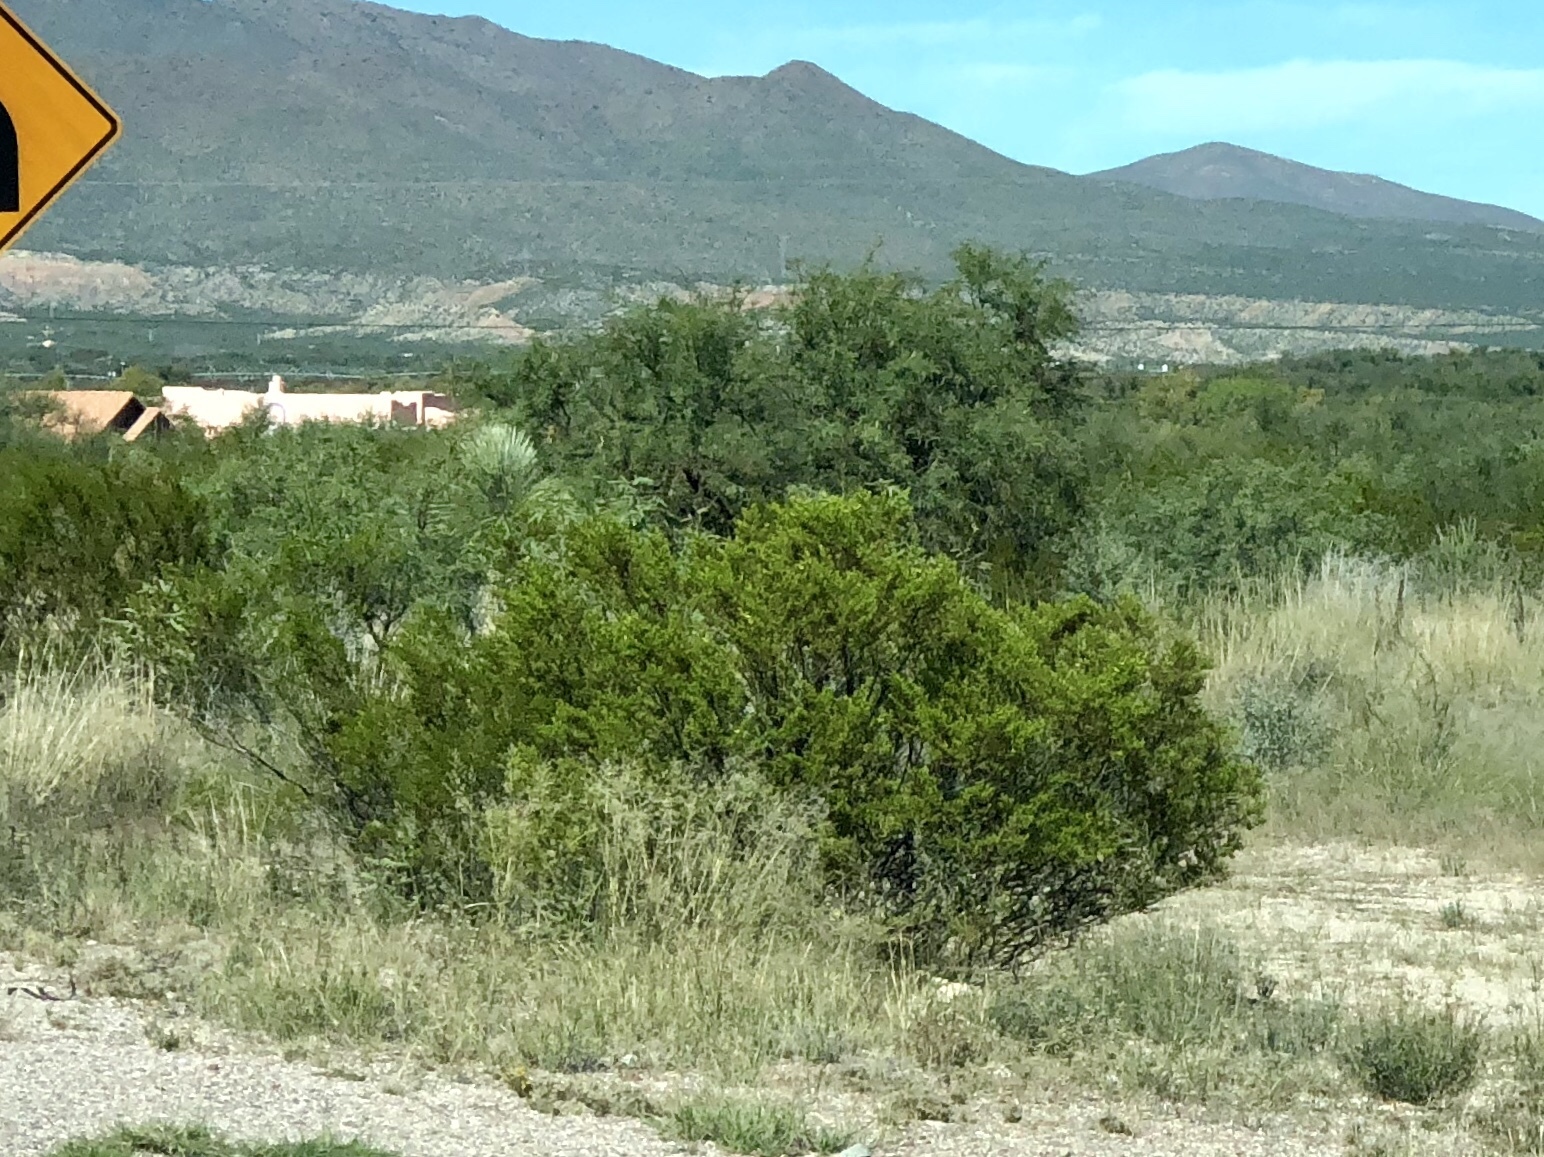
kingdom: Plantae
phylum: Tracheophyta
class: Magnoliopsida
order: Zygophyllales
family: Zygophyllaceae
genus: Larrea
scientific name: Larrea tridentata
